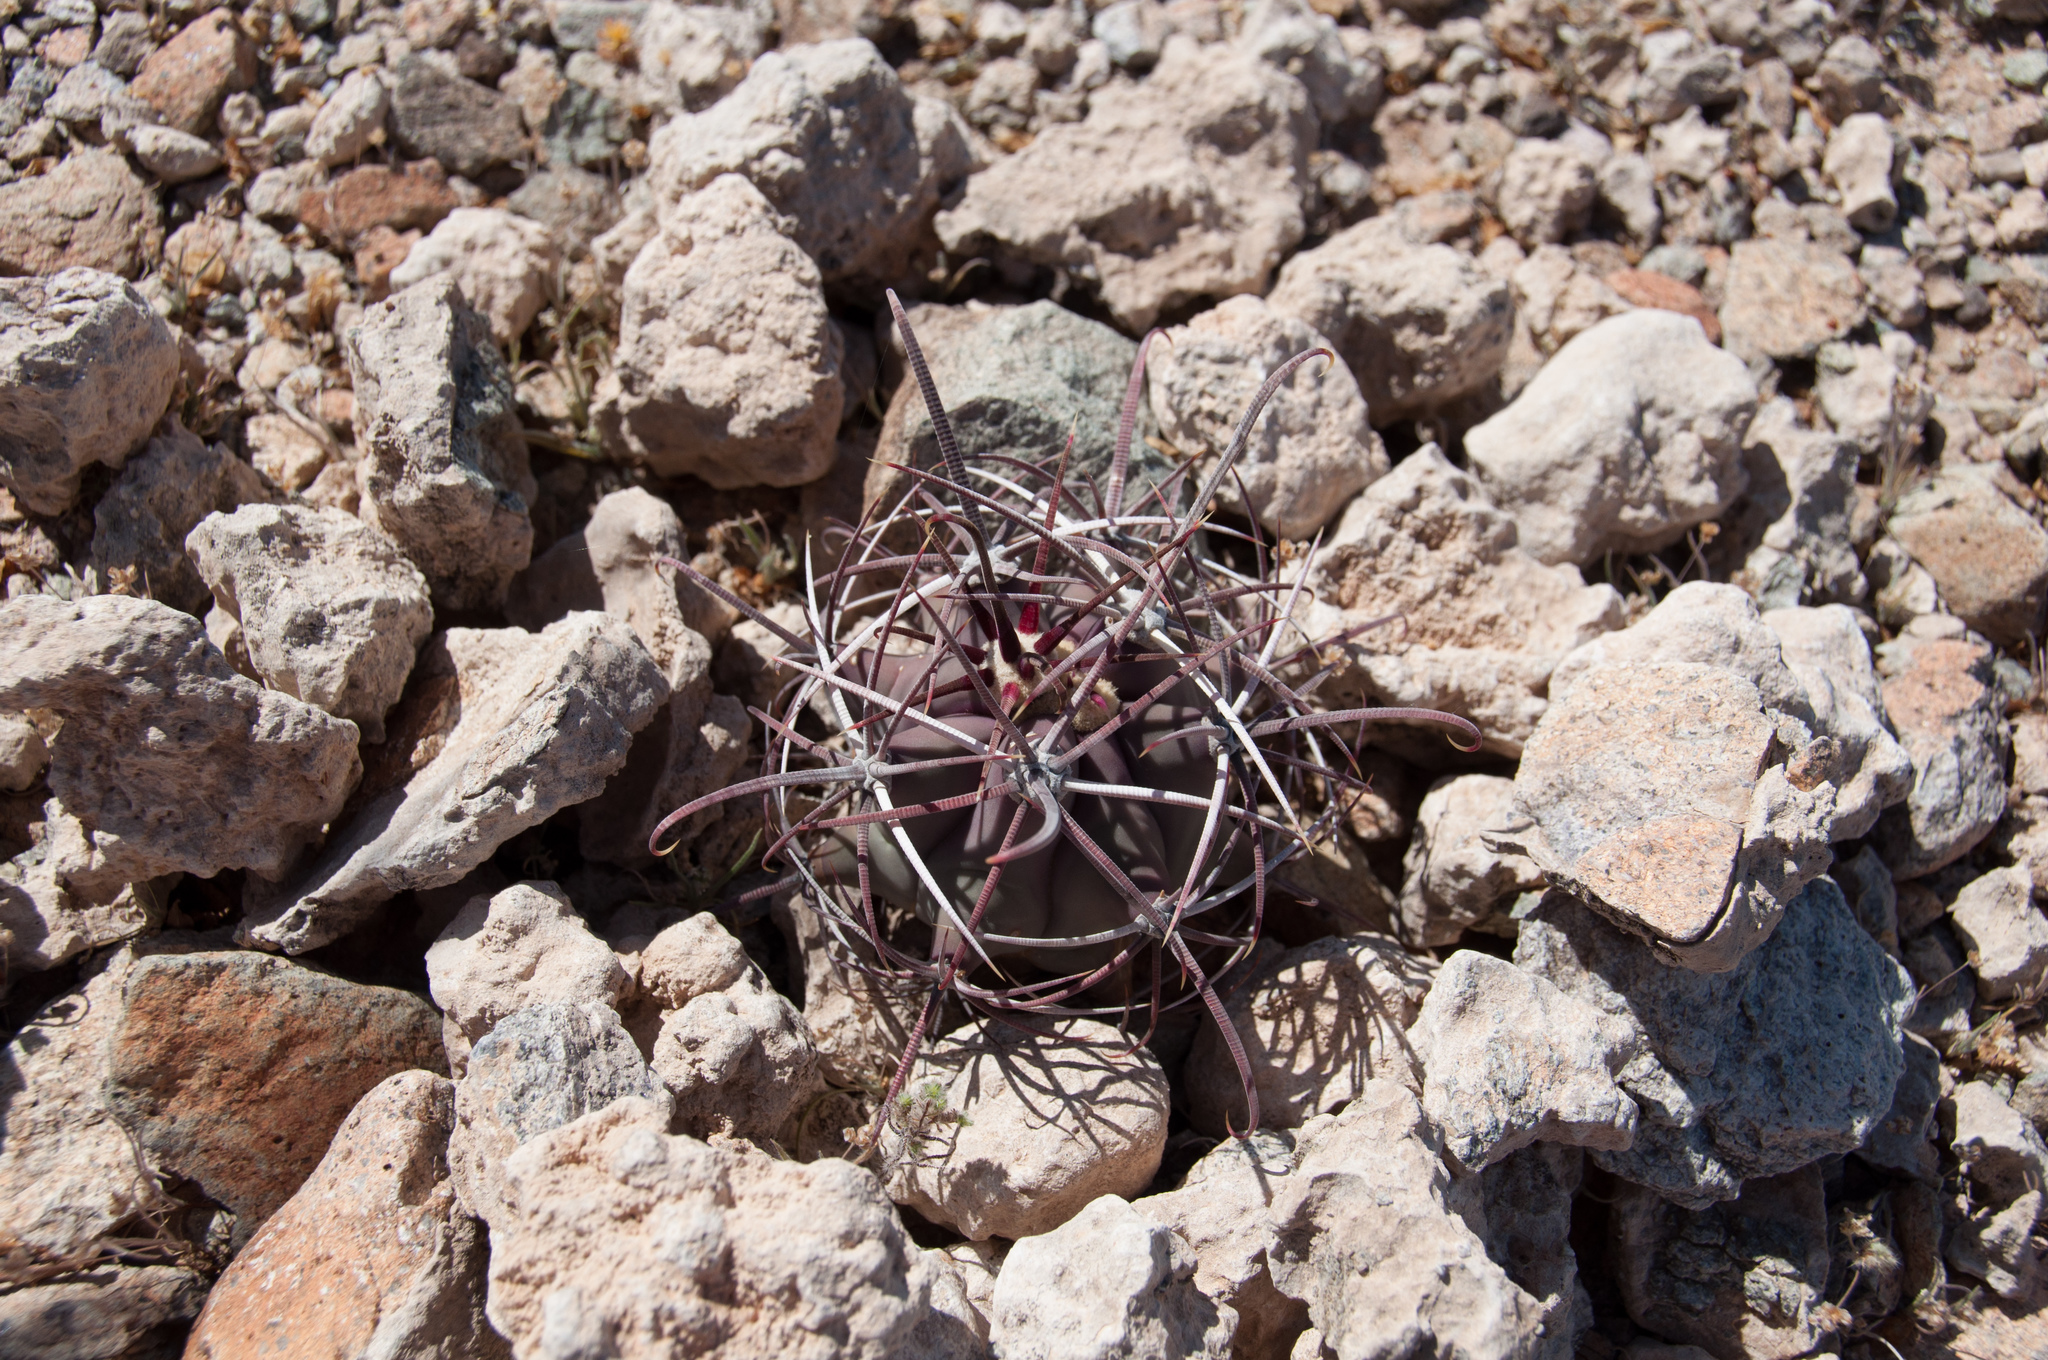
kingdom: Plantae
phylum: Tracheophyta
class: Magnoliopsida
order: Caryophyllales
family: Cactaceae
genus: Ferocactus
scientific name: Ferocactus emoryi
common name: Emory's barrel cactus
